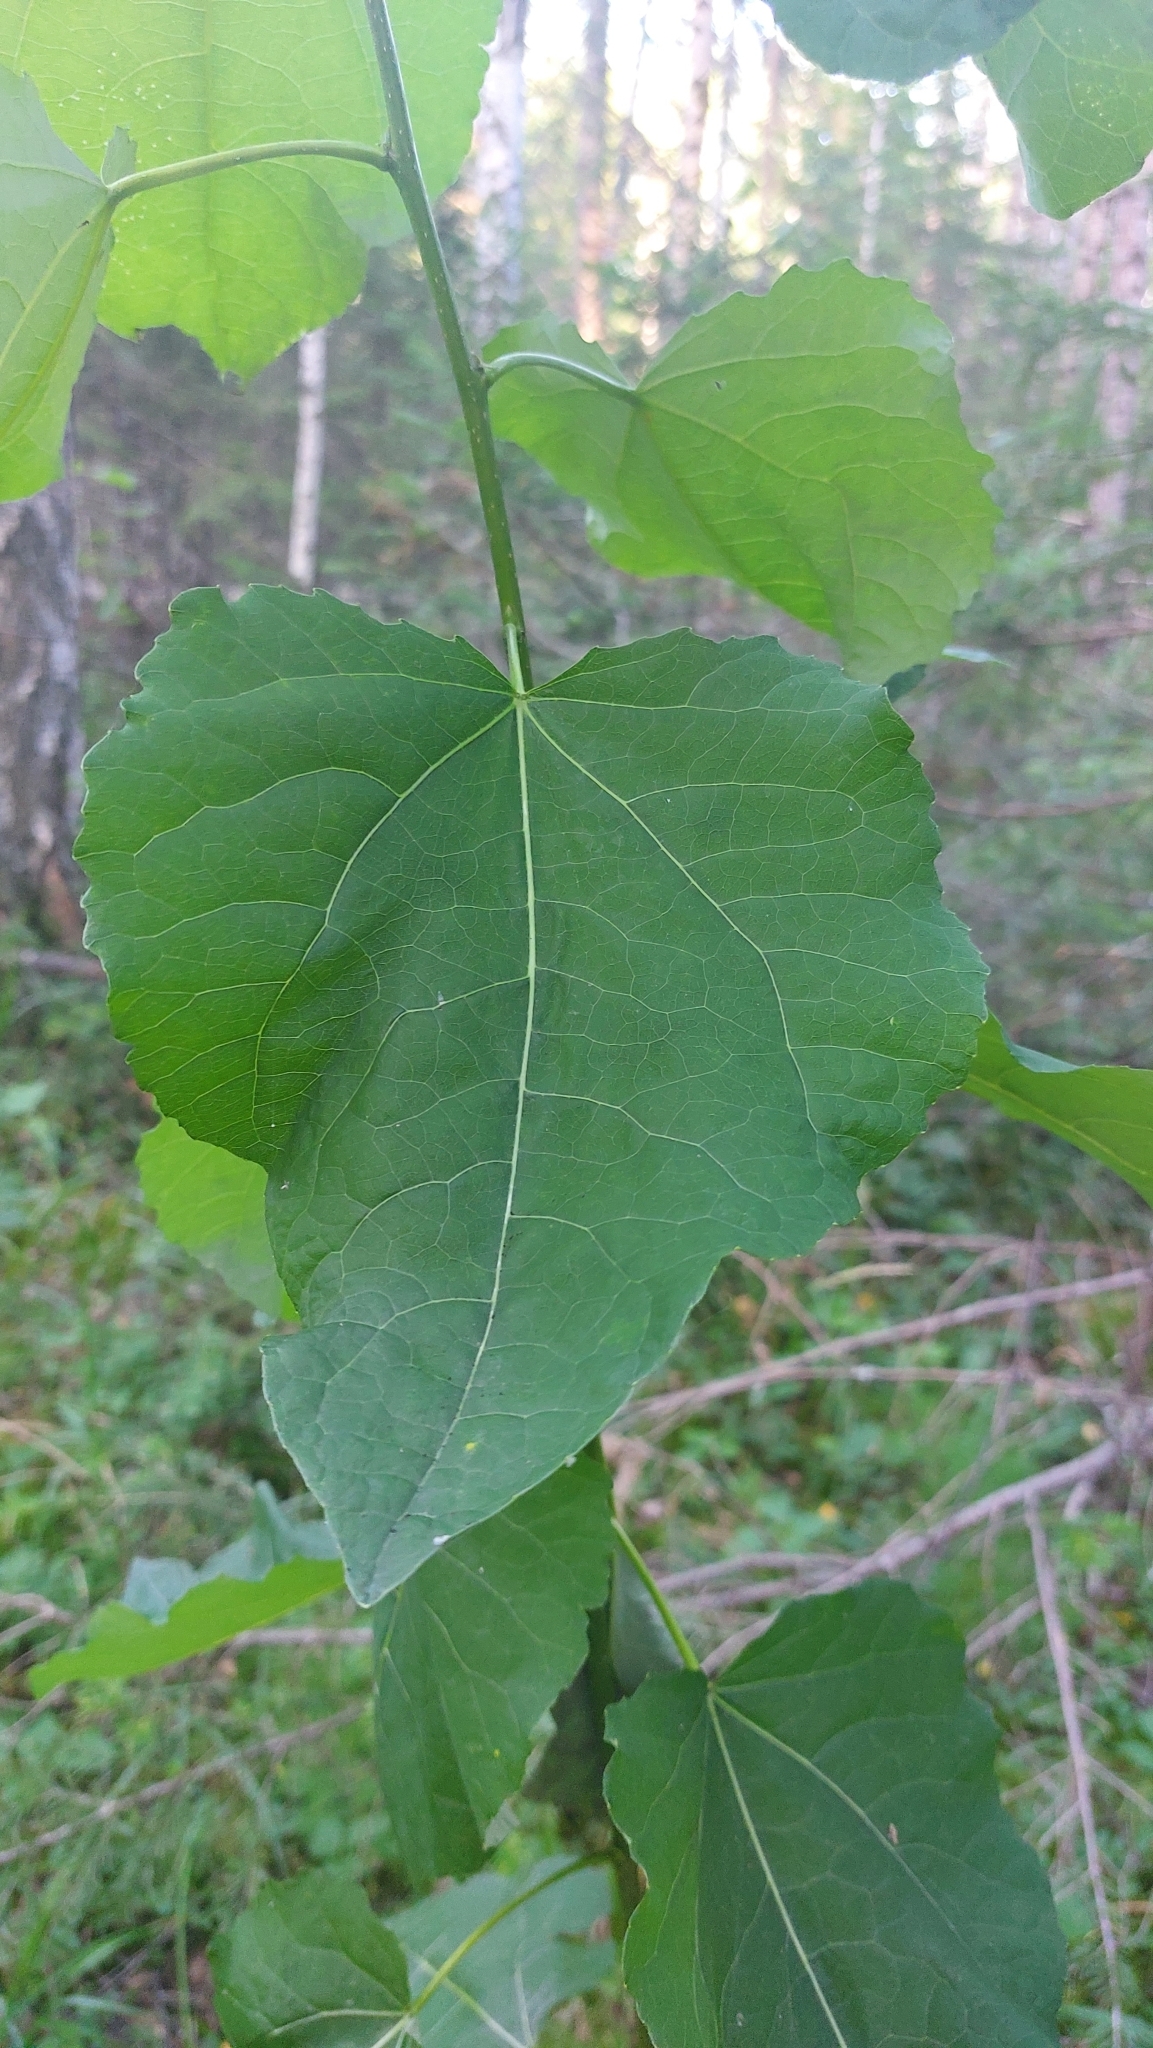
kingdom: Plantae
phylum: Tracheophyta
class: Magnoliopsida
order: Malpighiales
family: Salicaceae
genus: Populus
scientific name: Populus tremula
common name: European aspen
